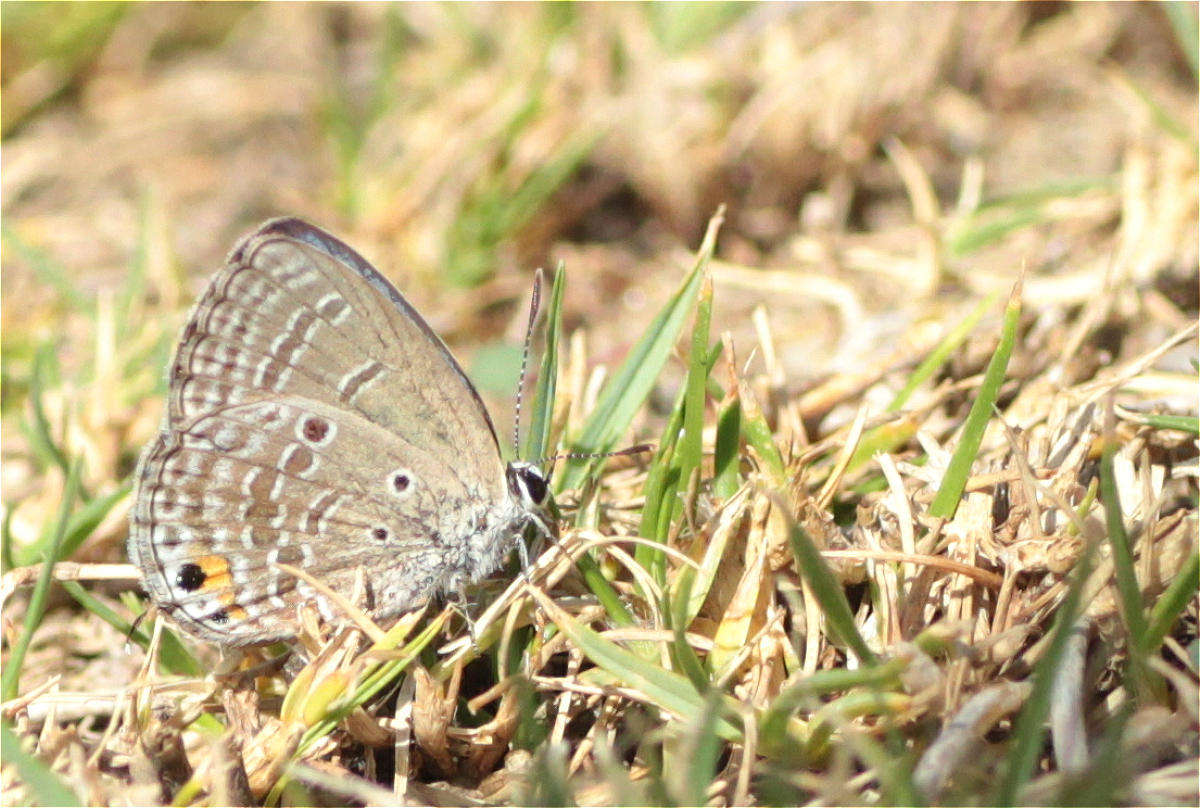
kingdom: Animalia
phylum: Arthropoda
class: Insecta
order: Lepidoptera
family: Lycaenidae
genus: Luthrodes
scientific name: Luthrodes pandava
